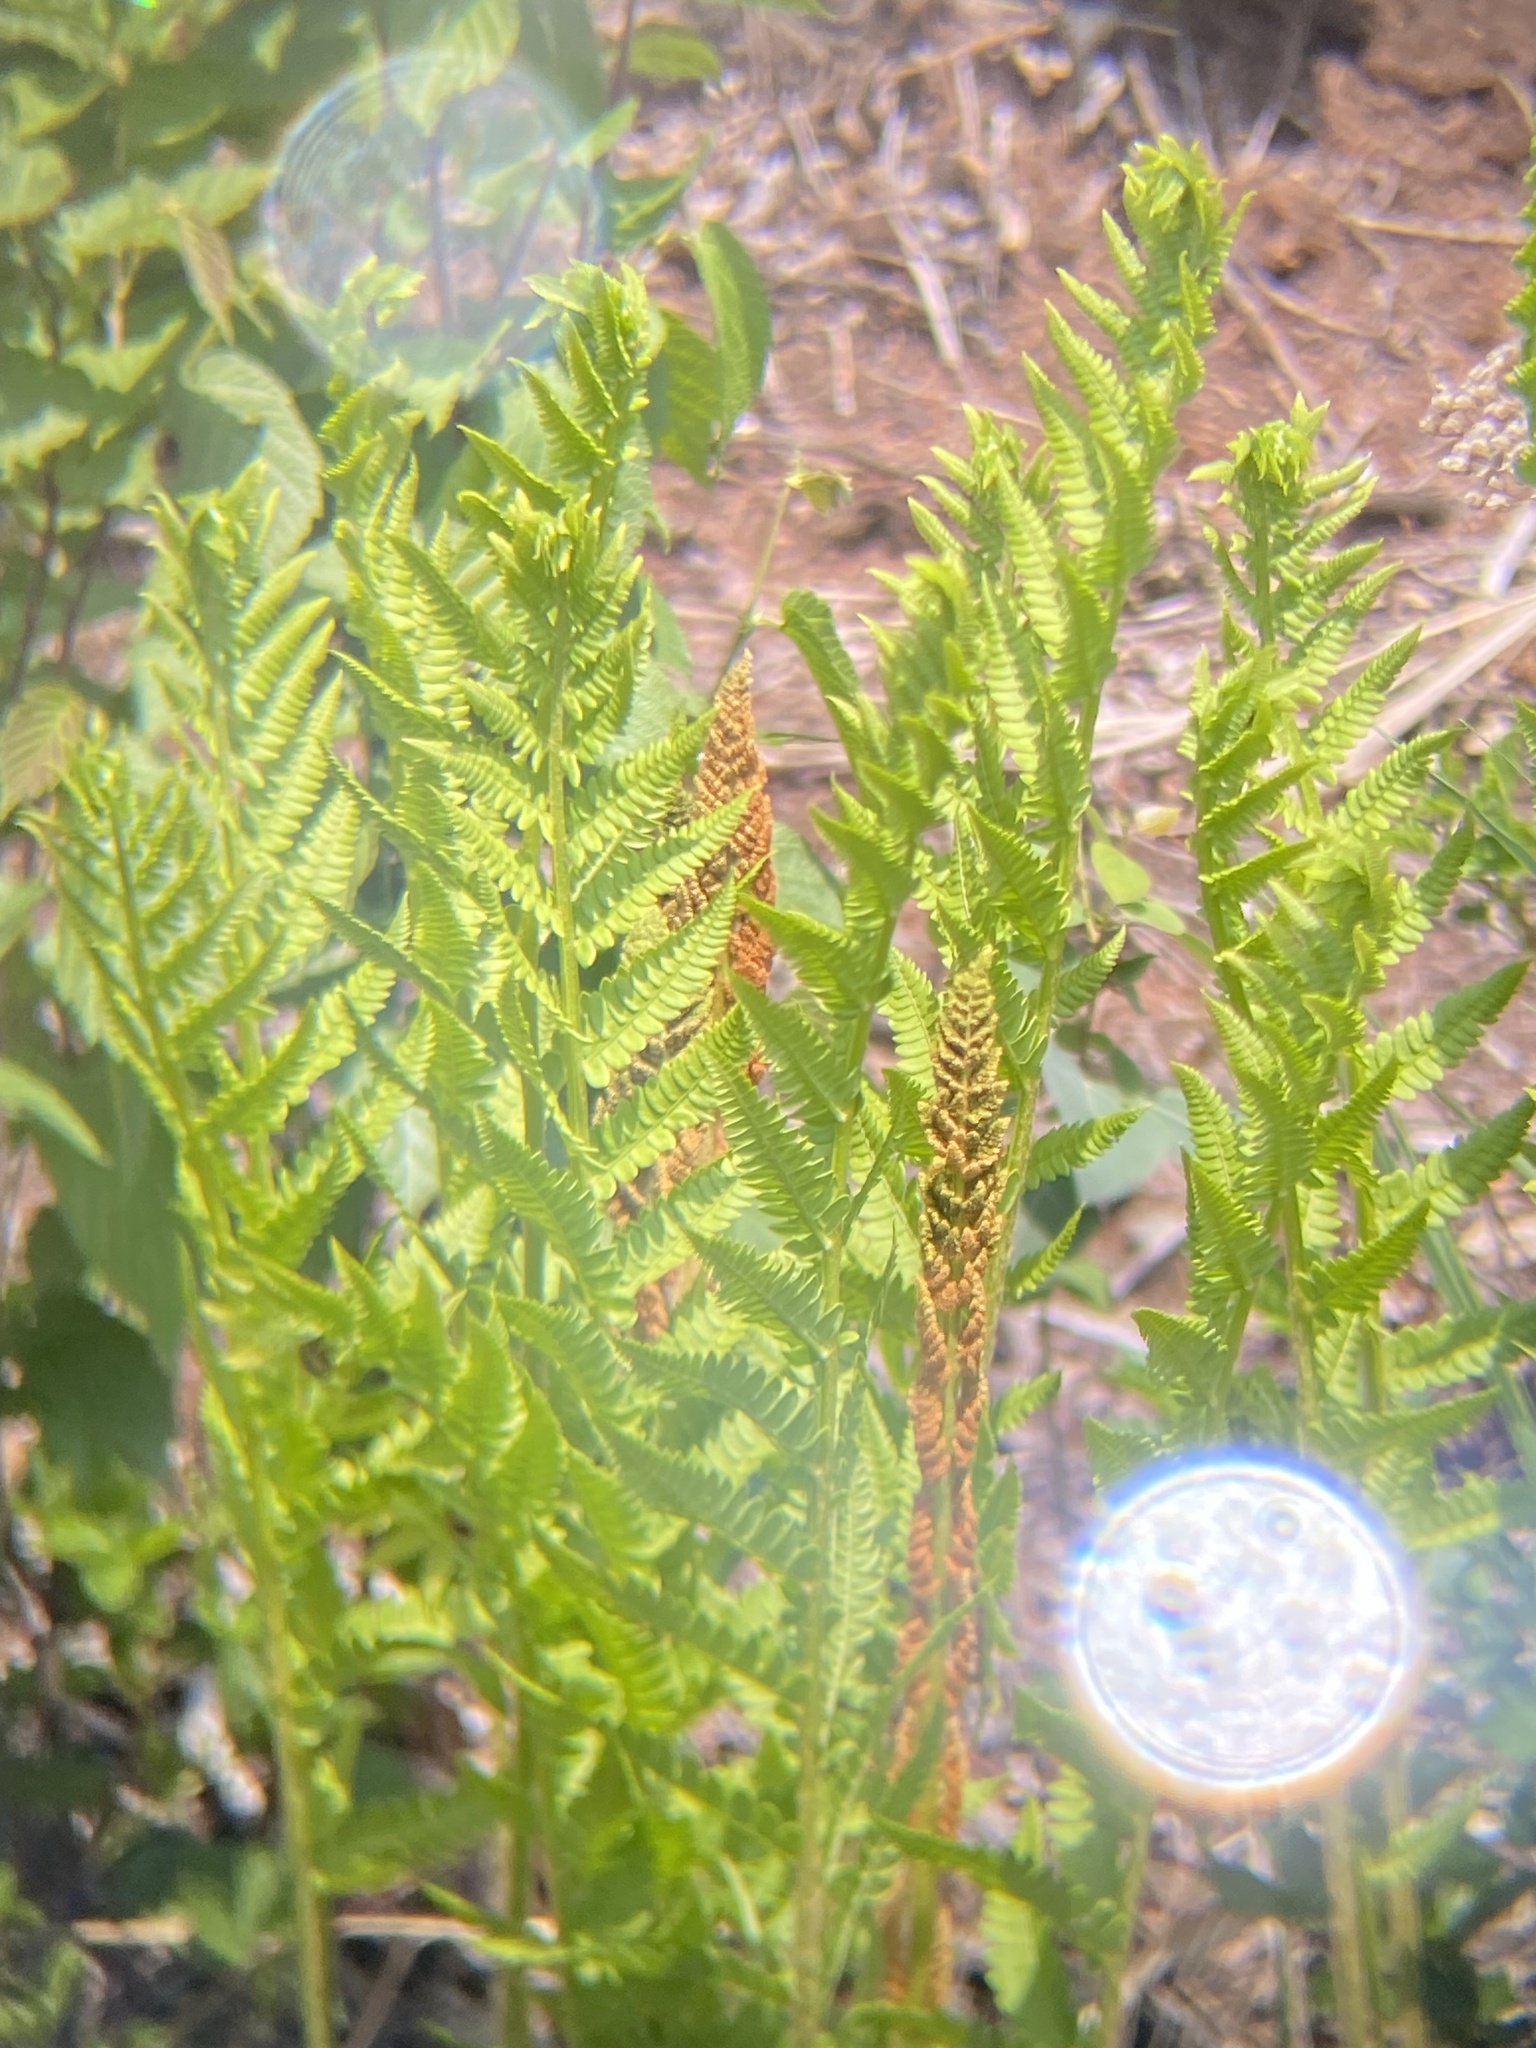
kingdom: Plantae
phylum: Tracheophyta
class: Polypodiopsida
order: Osmundales
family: Osmundaceae
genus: Osmundastrum
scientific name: Osmundastrum cinnamomeum
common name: Cinnamon fern
